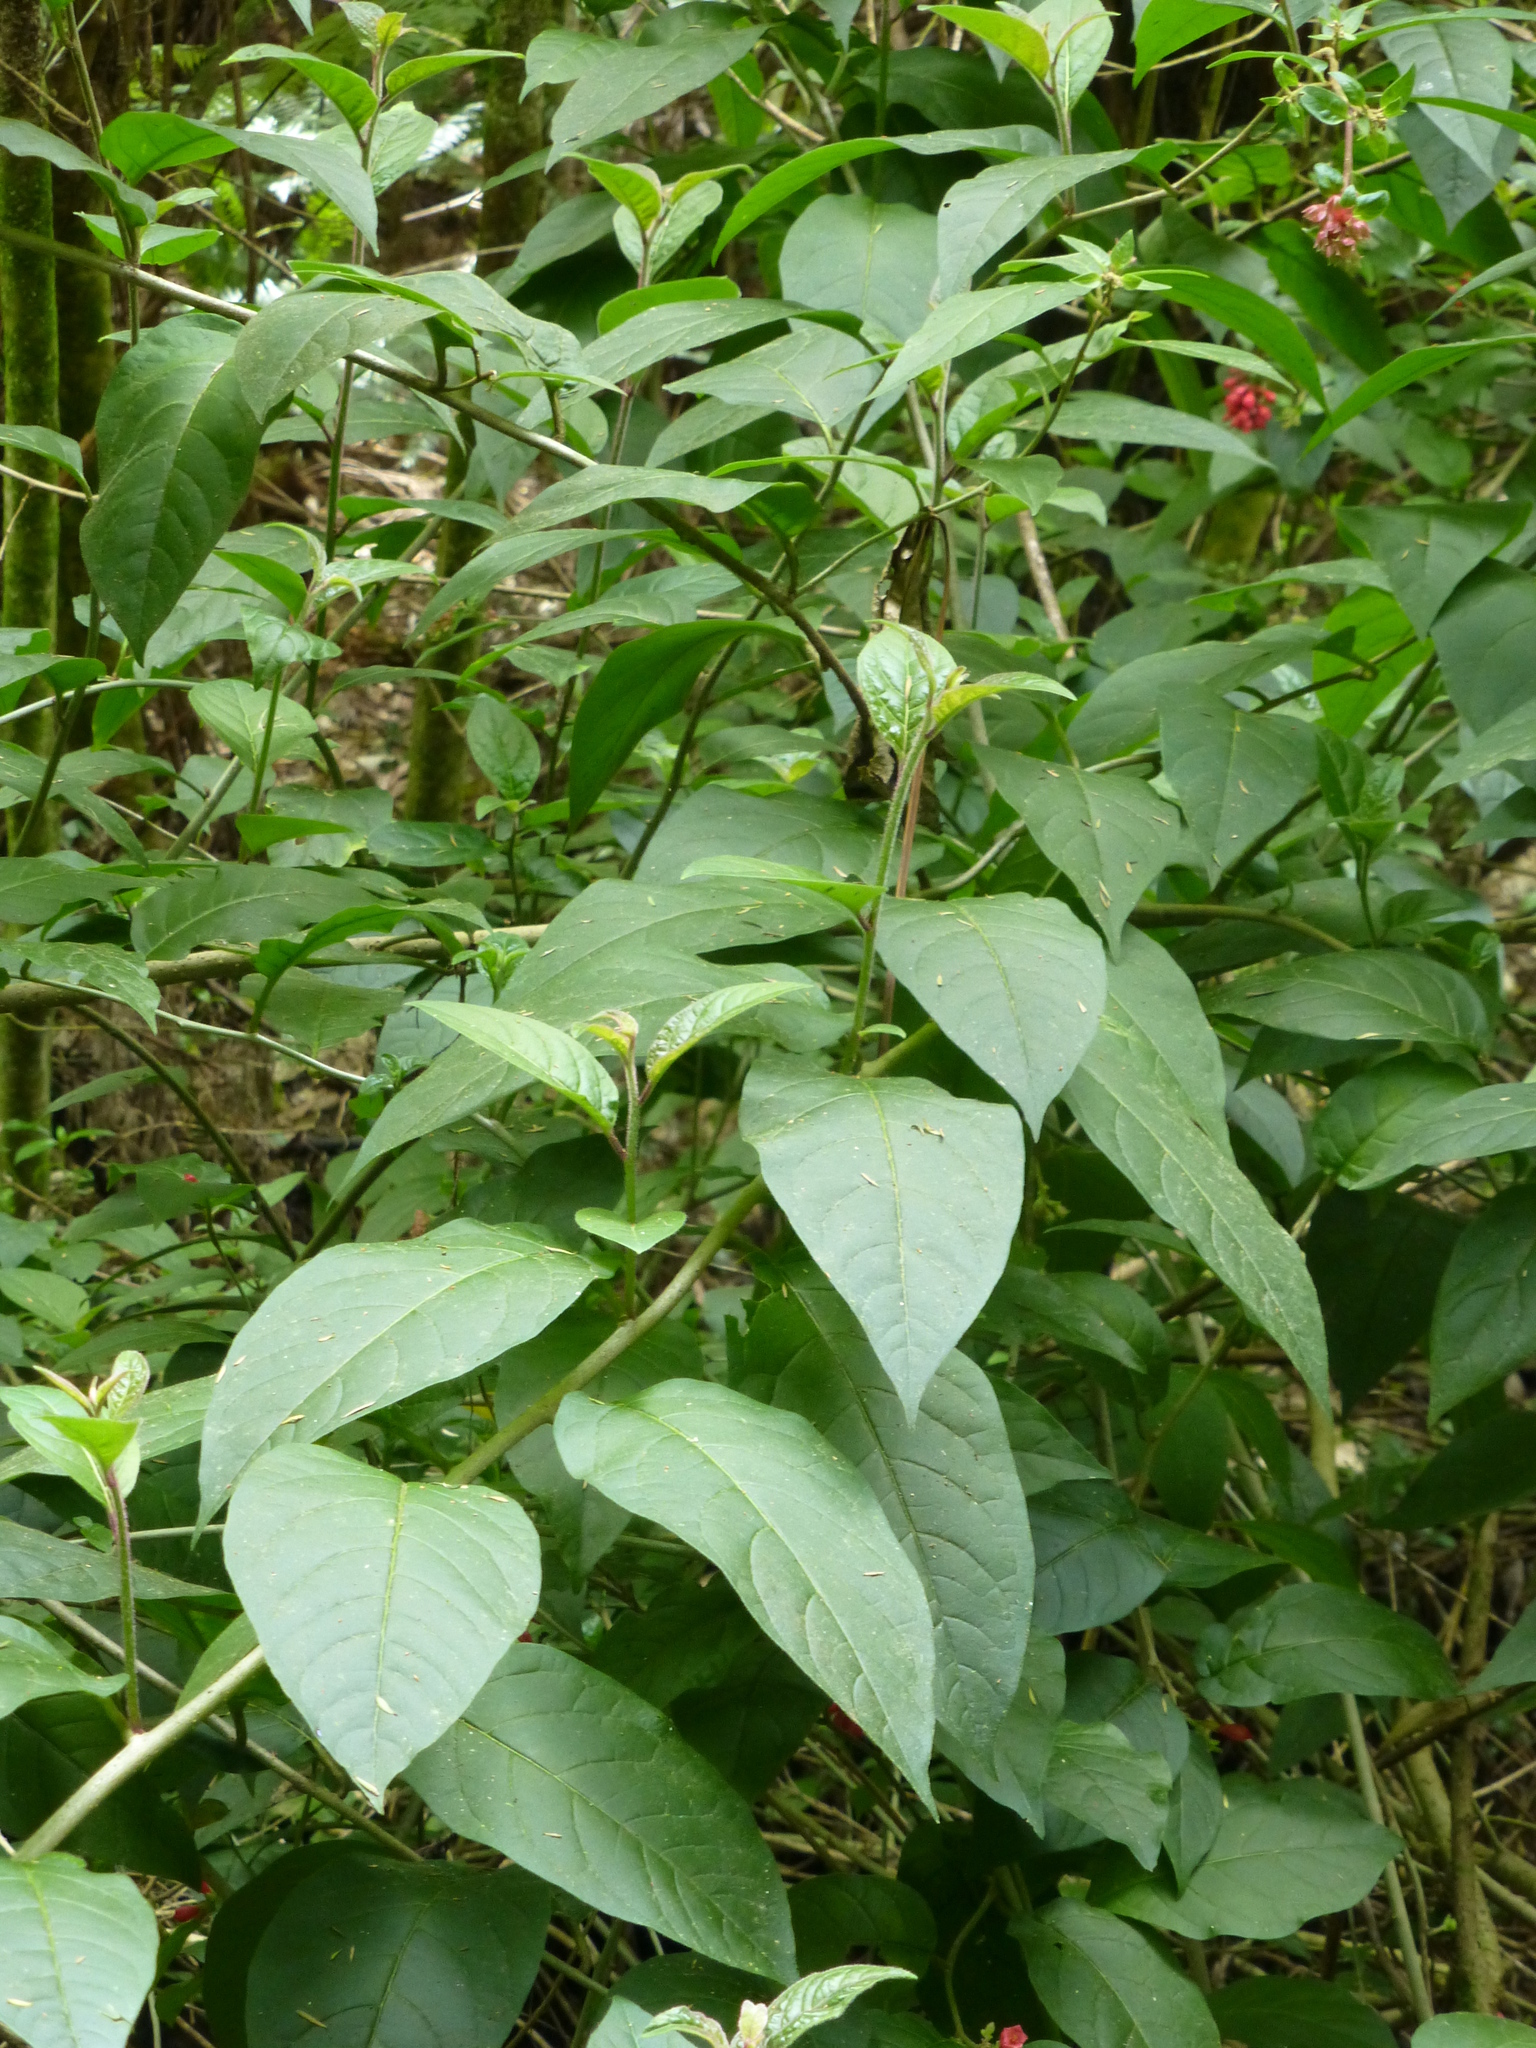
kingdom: Plantae
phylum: Tracheophyta
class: Magnoliopsida
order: Solanales
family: Solanaceae
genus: Cestrum
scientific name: Cestrum fasciculatum
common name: Early jessamine
